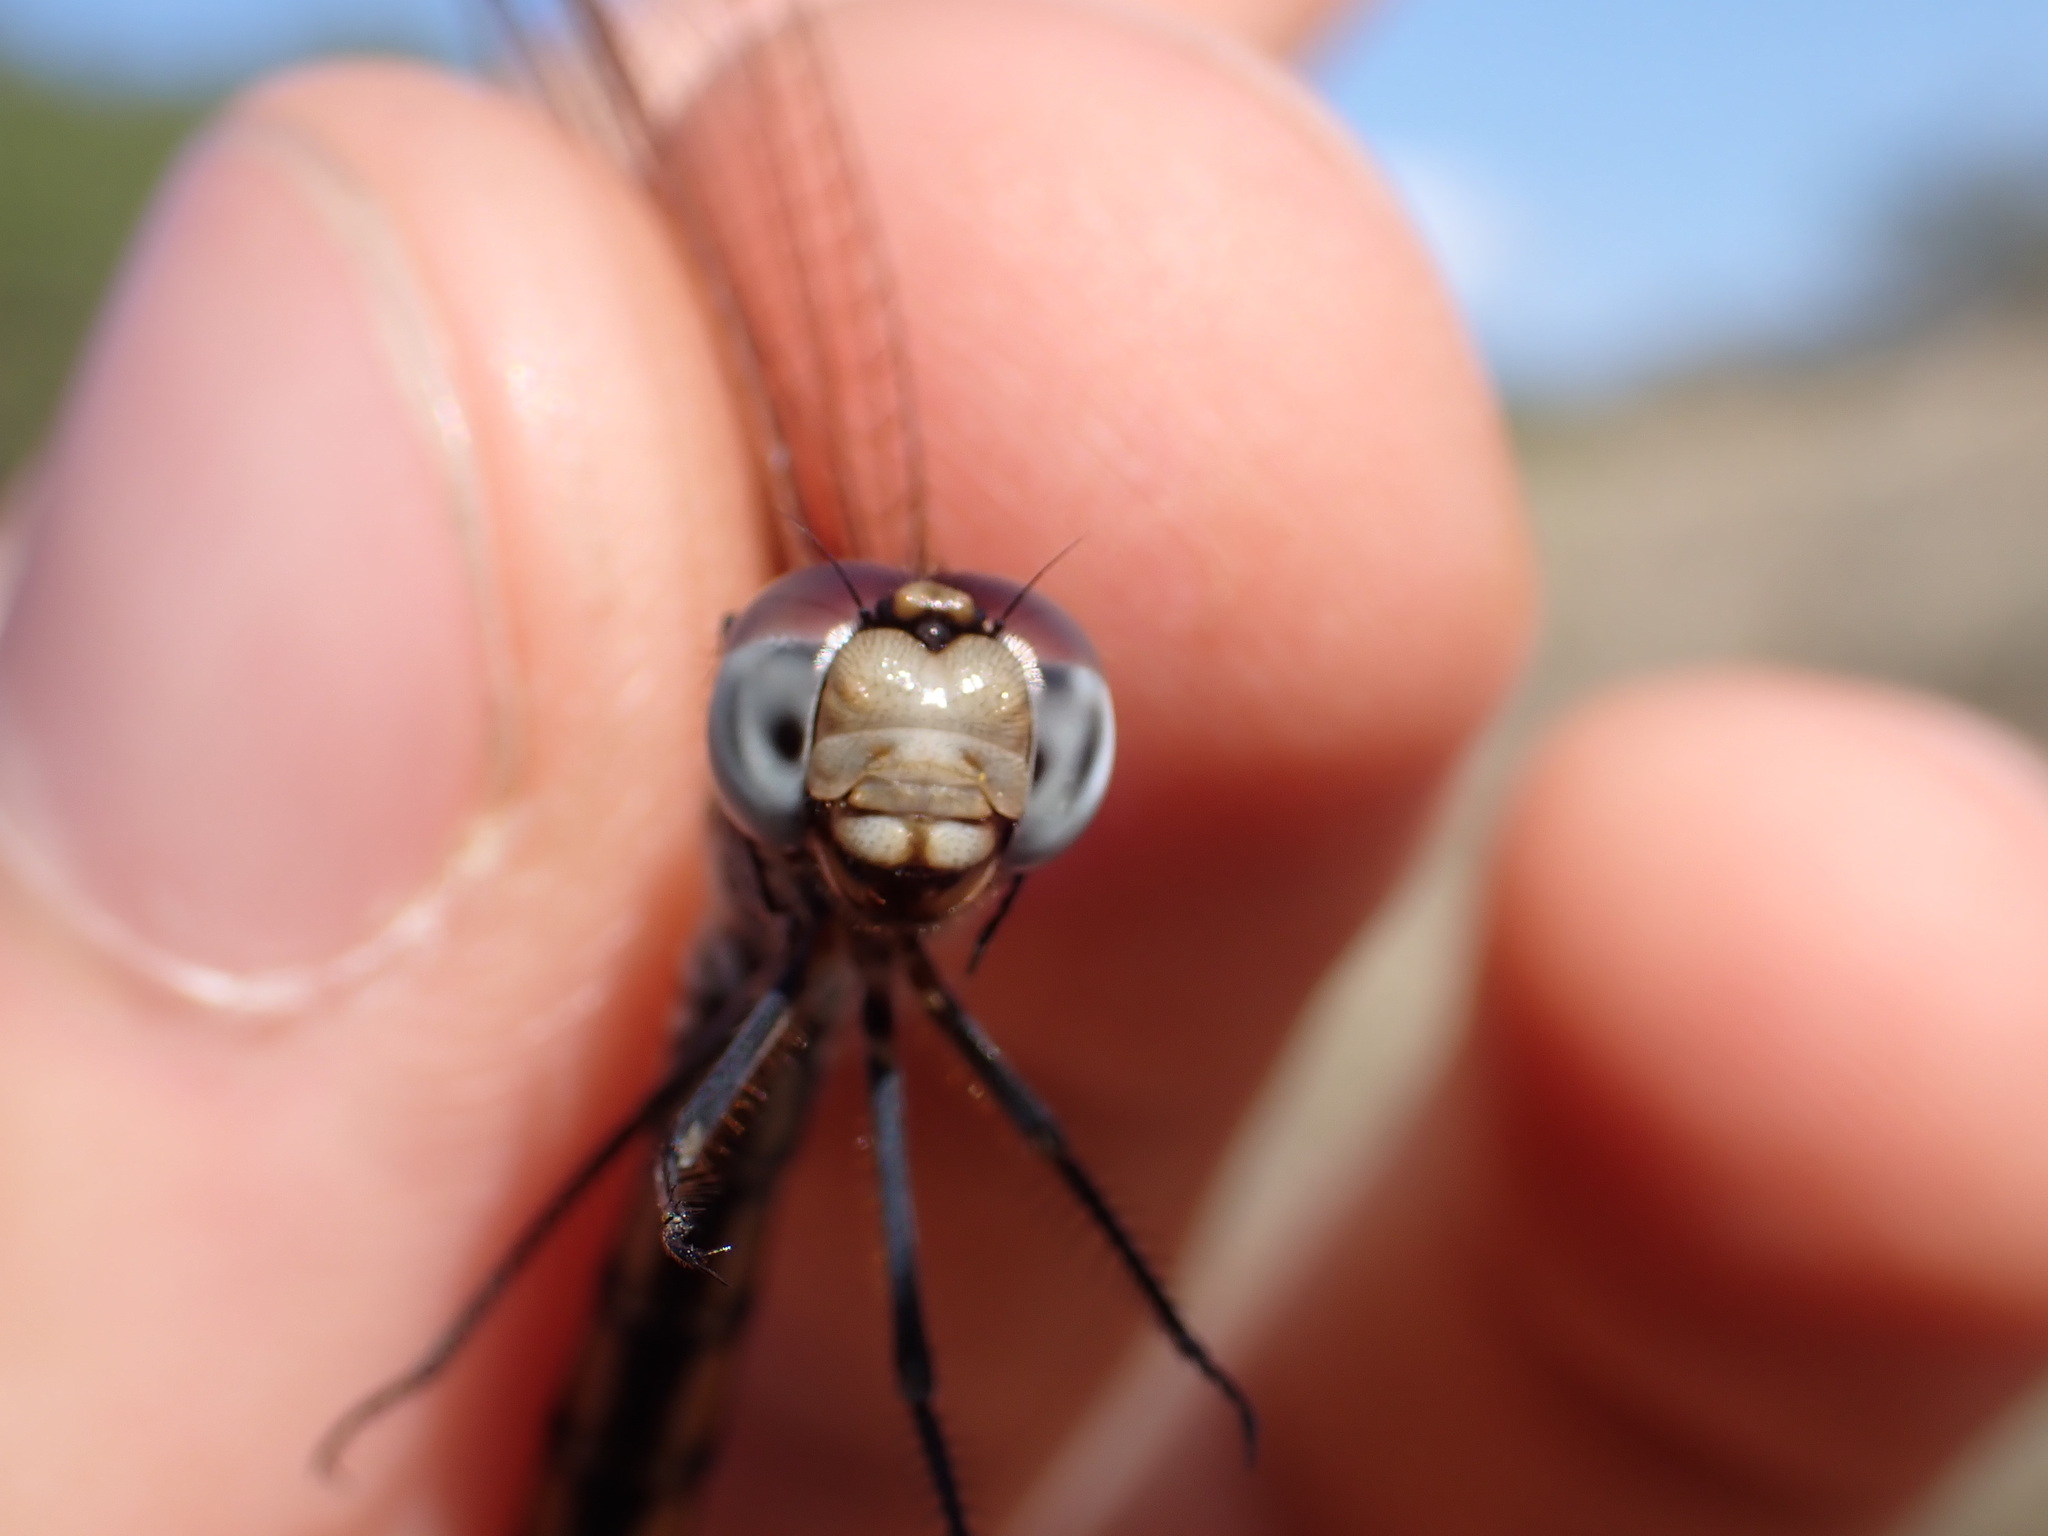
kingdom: Animalia
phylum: Arthropoda
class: Insecta
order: Odonata
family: Libellulidae
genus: Trithemis
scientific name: Trithemis annulata
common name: Violet dropwing
